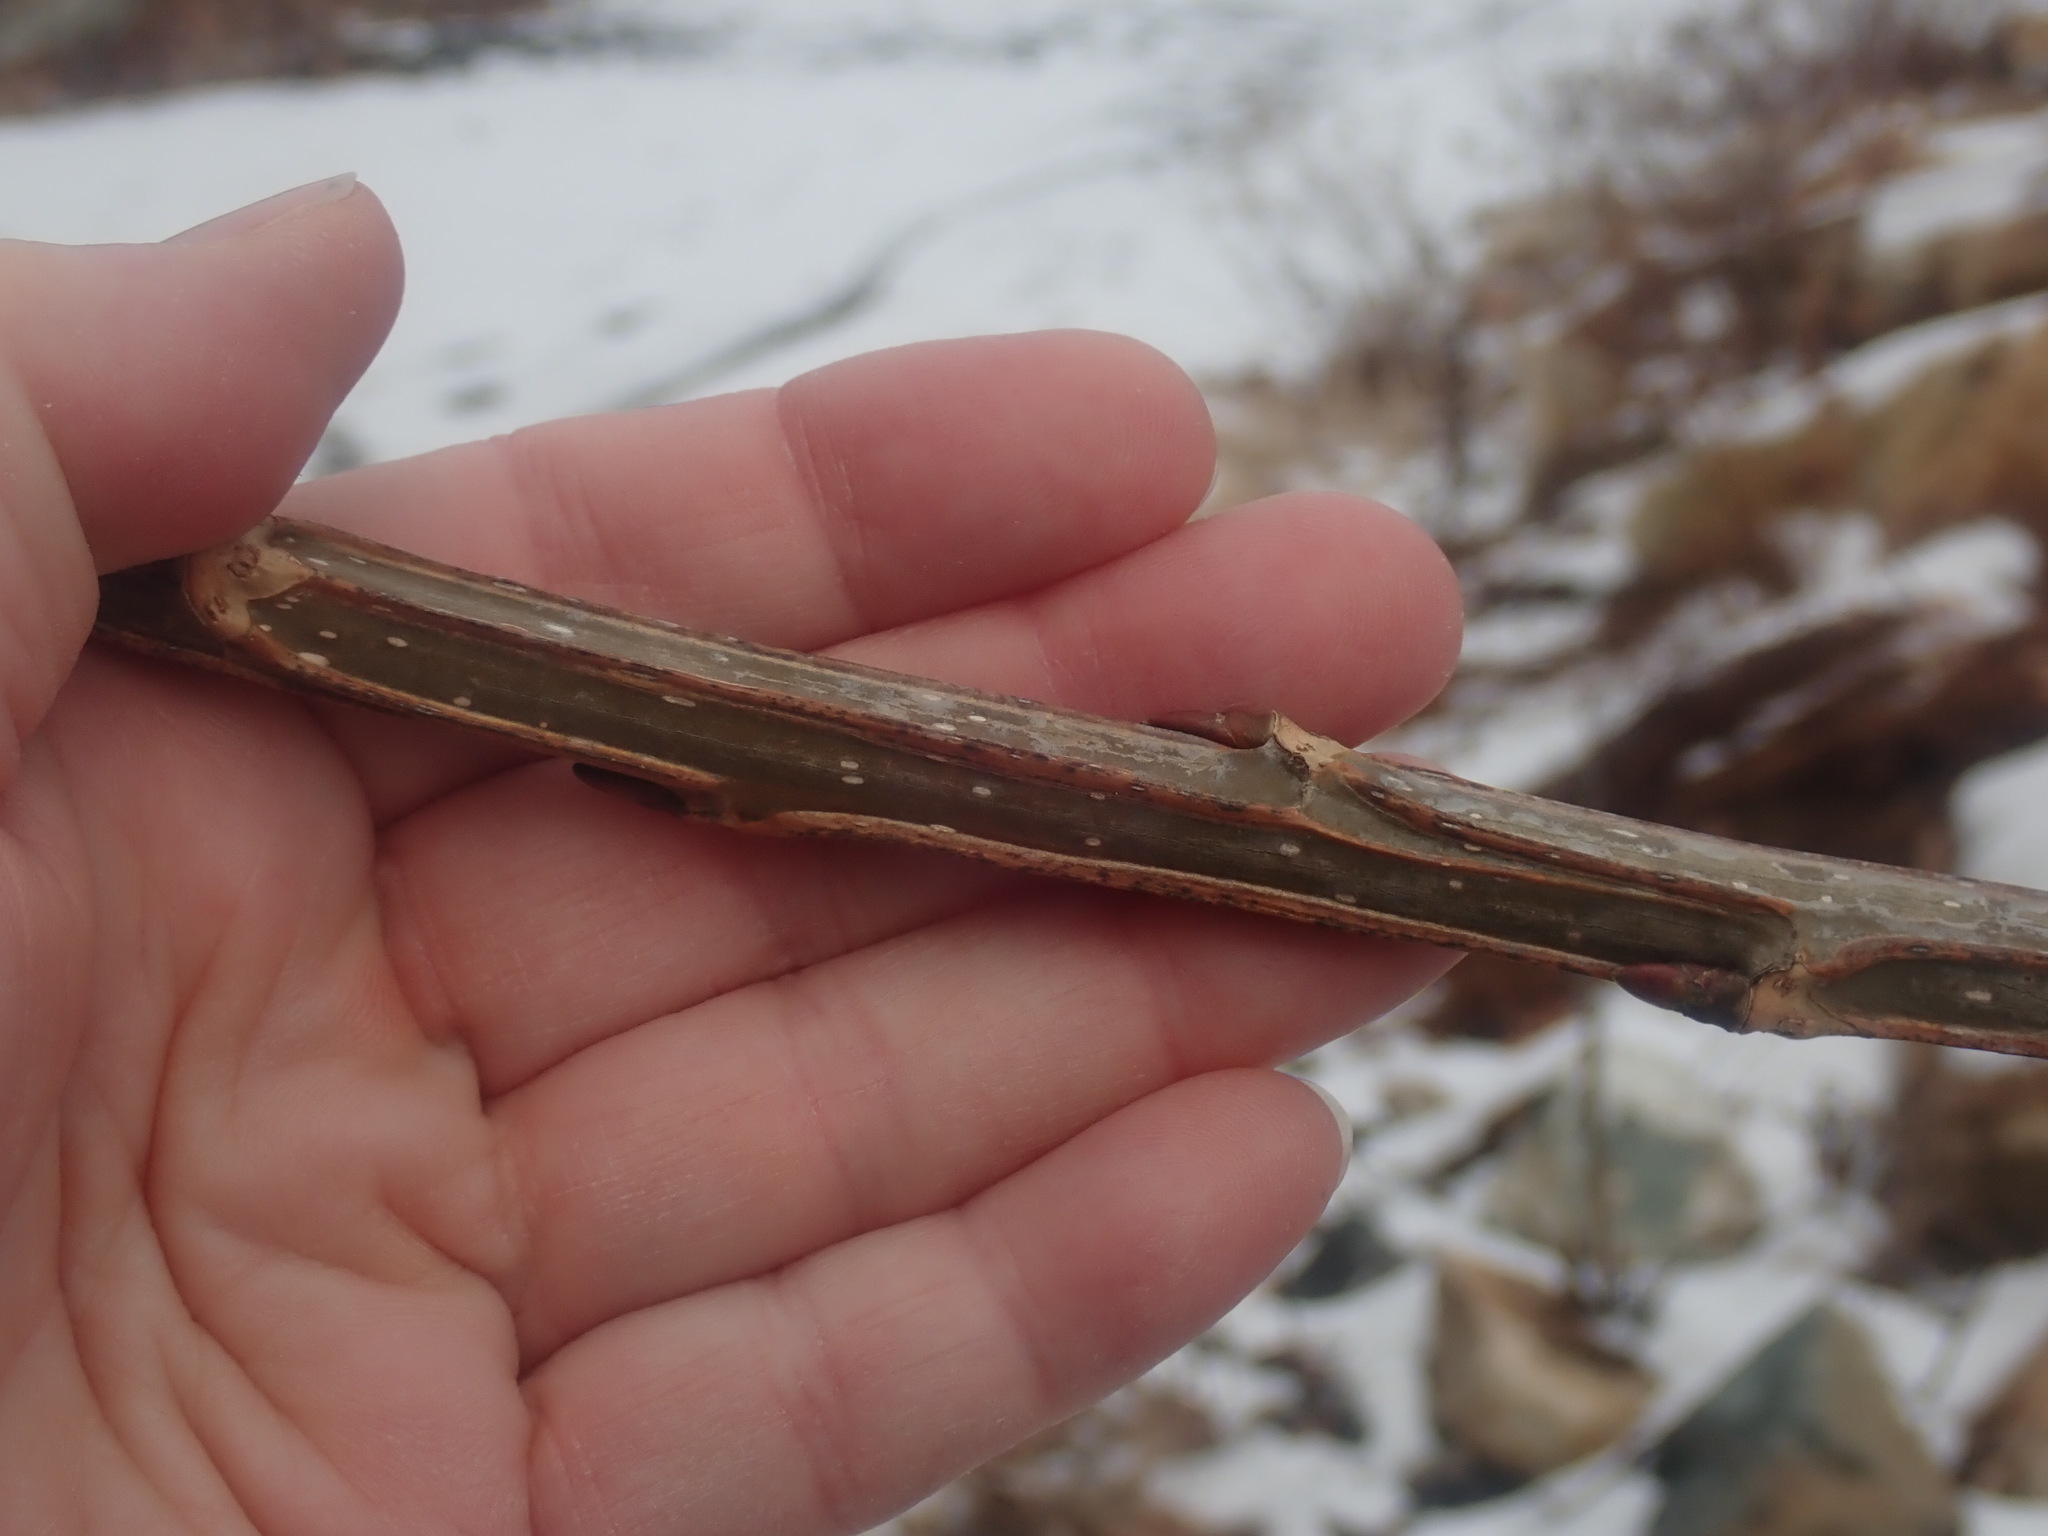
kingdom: Plantae
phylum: Tracheophyta
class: Magnoliopsida
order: Malpighiales
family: Salicaceae
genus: Populus
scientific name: Populus deltoides
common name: Eastern cottonwood
